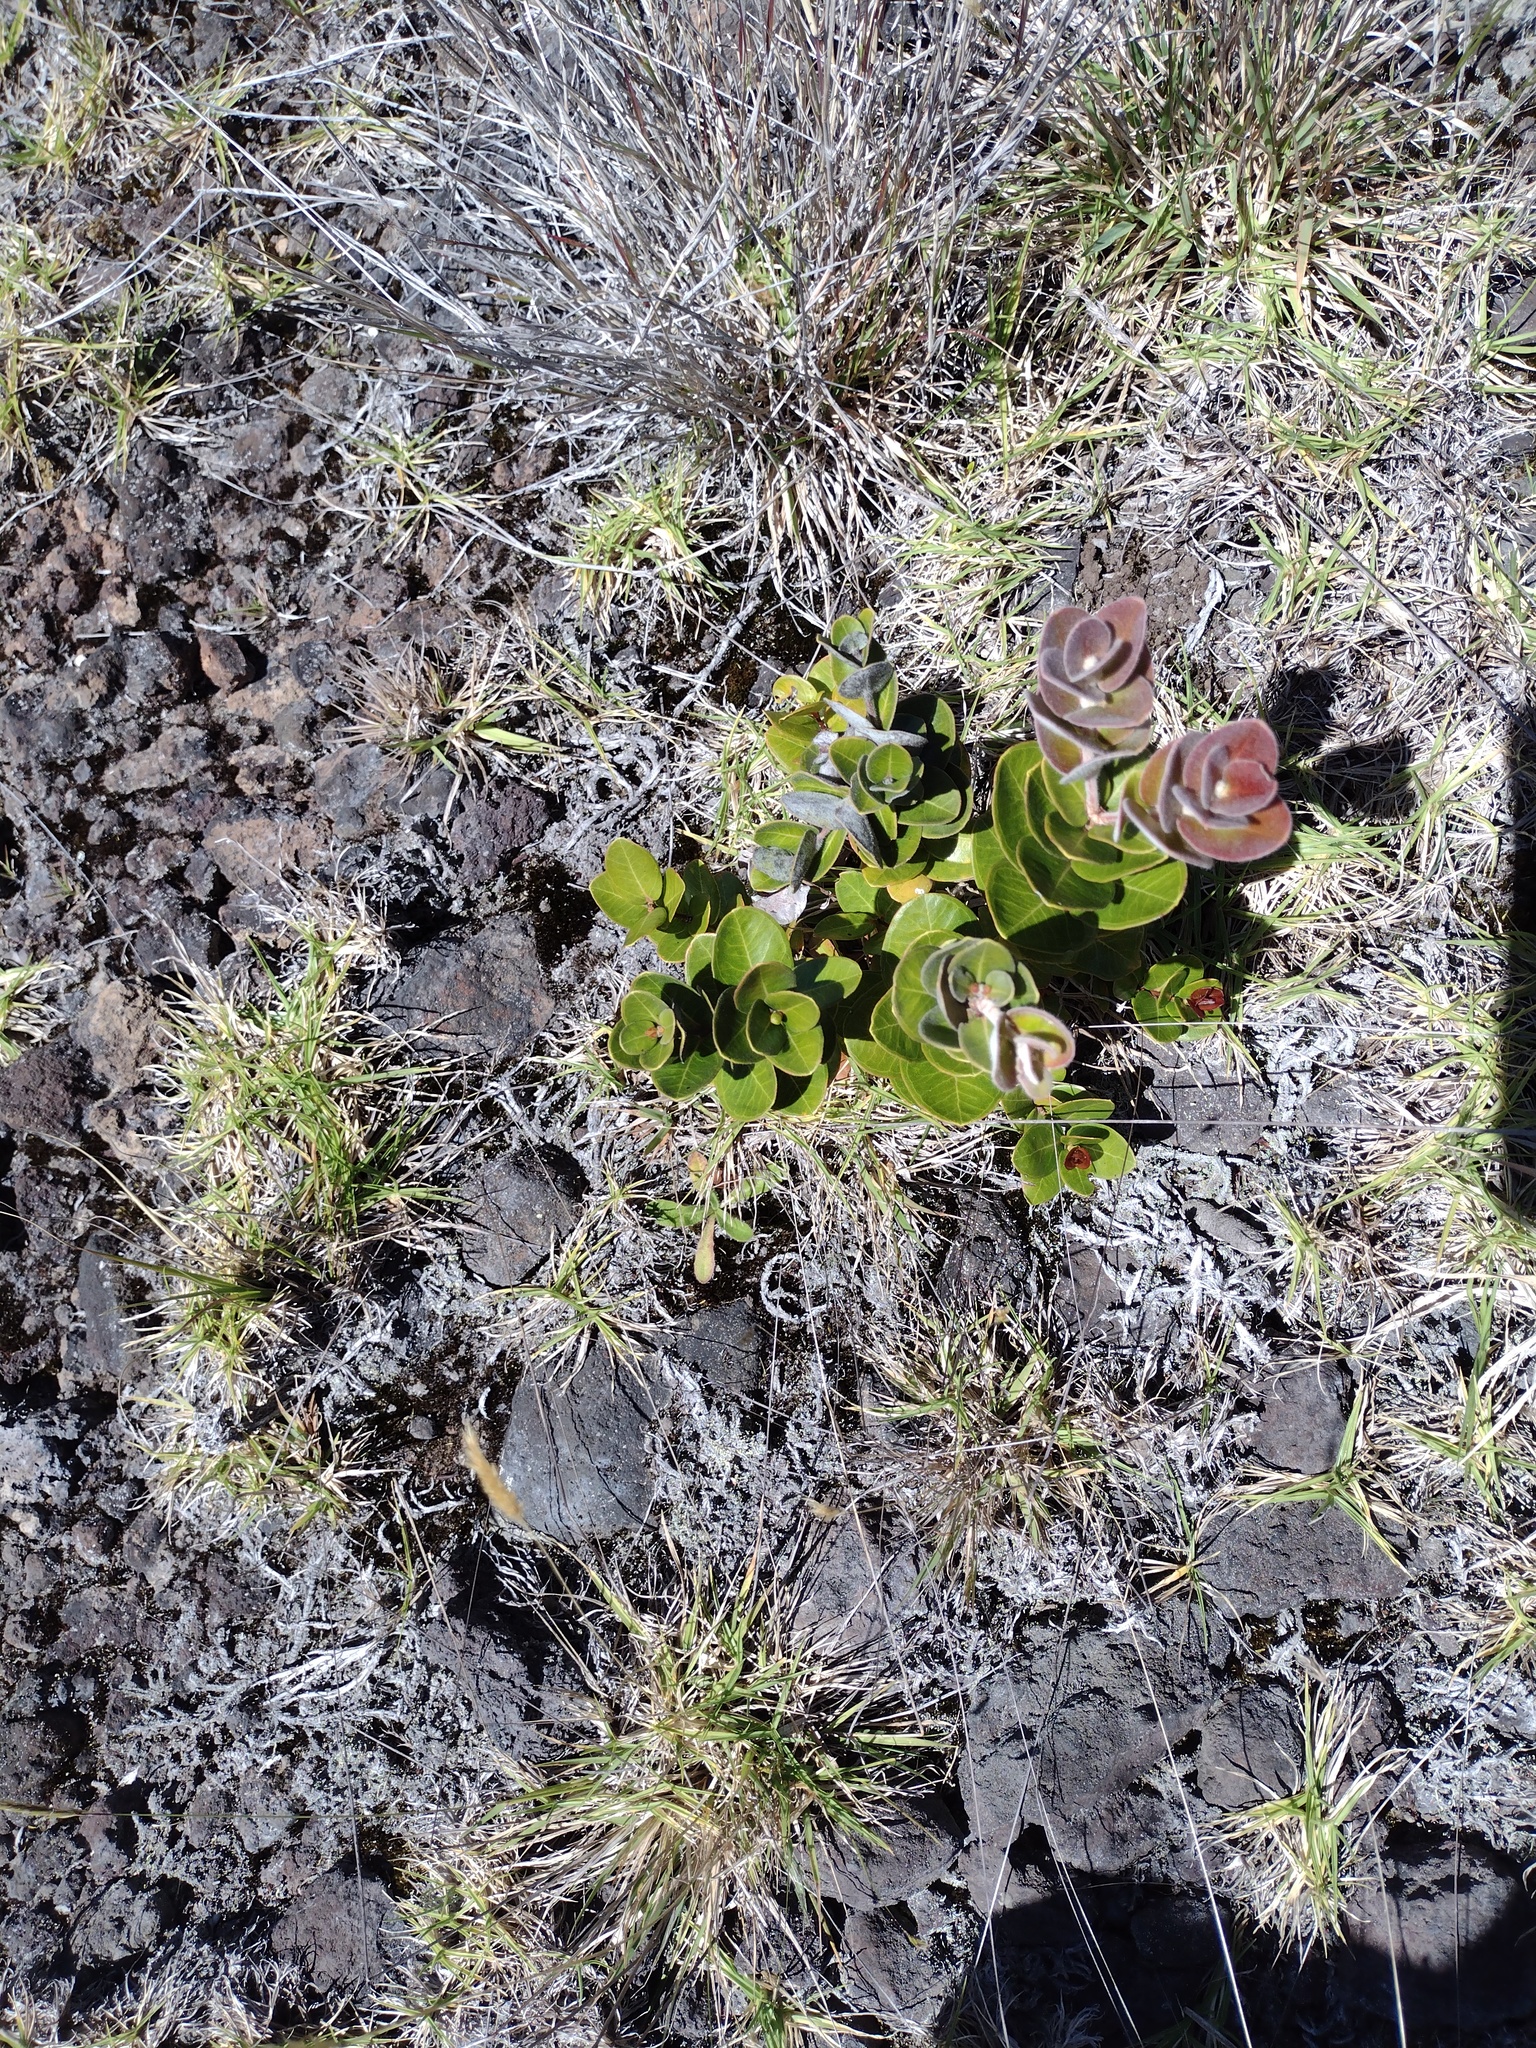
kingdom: Plantae
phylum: Tracheophyta
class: Magnoliopsida
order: Myrtales
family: Myrtaceae
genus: Metrosideros
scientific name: Metrosideros polymorpha
